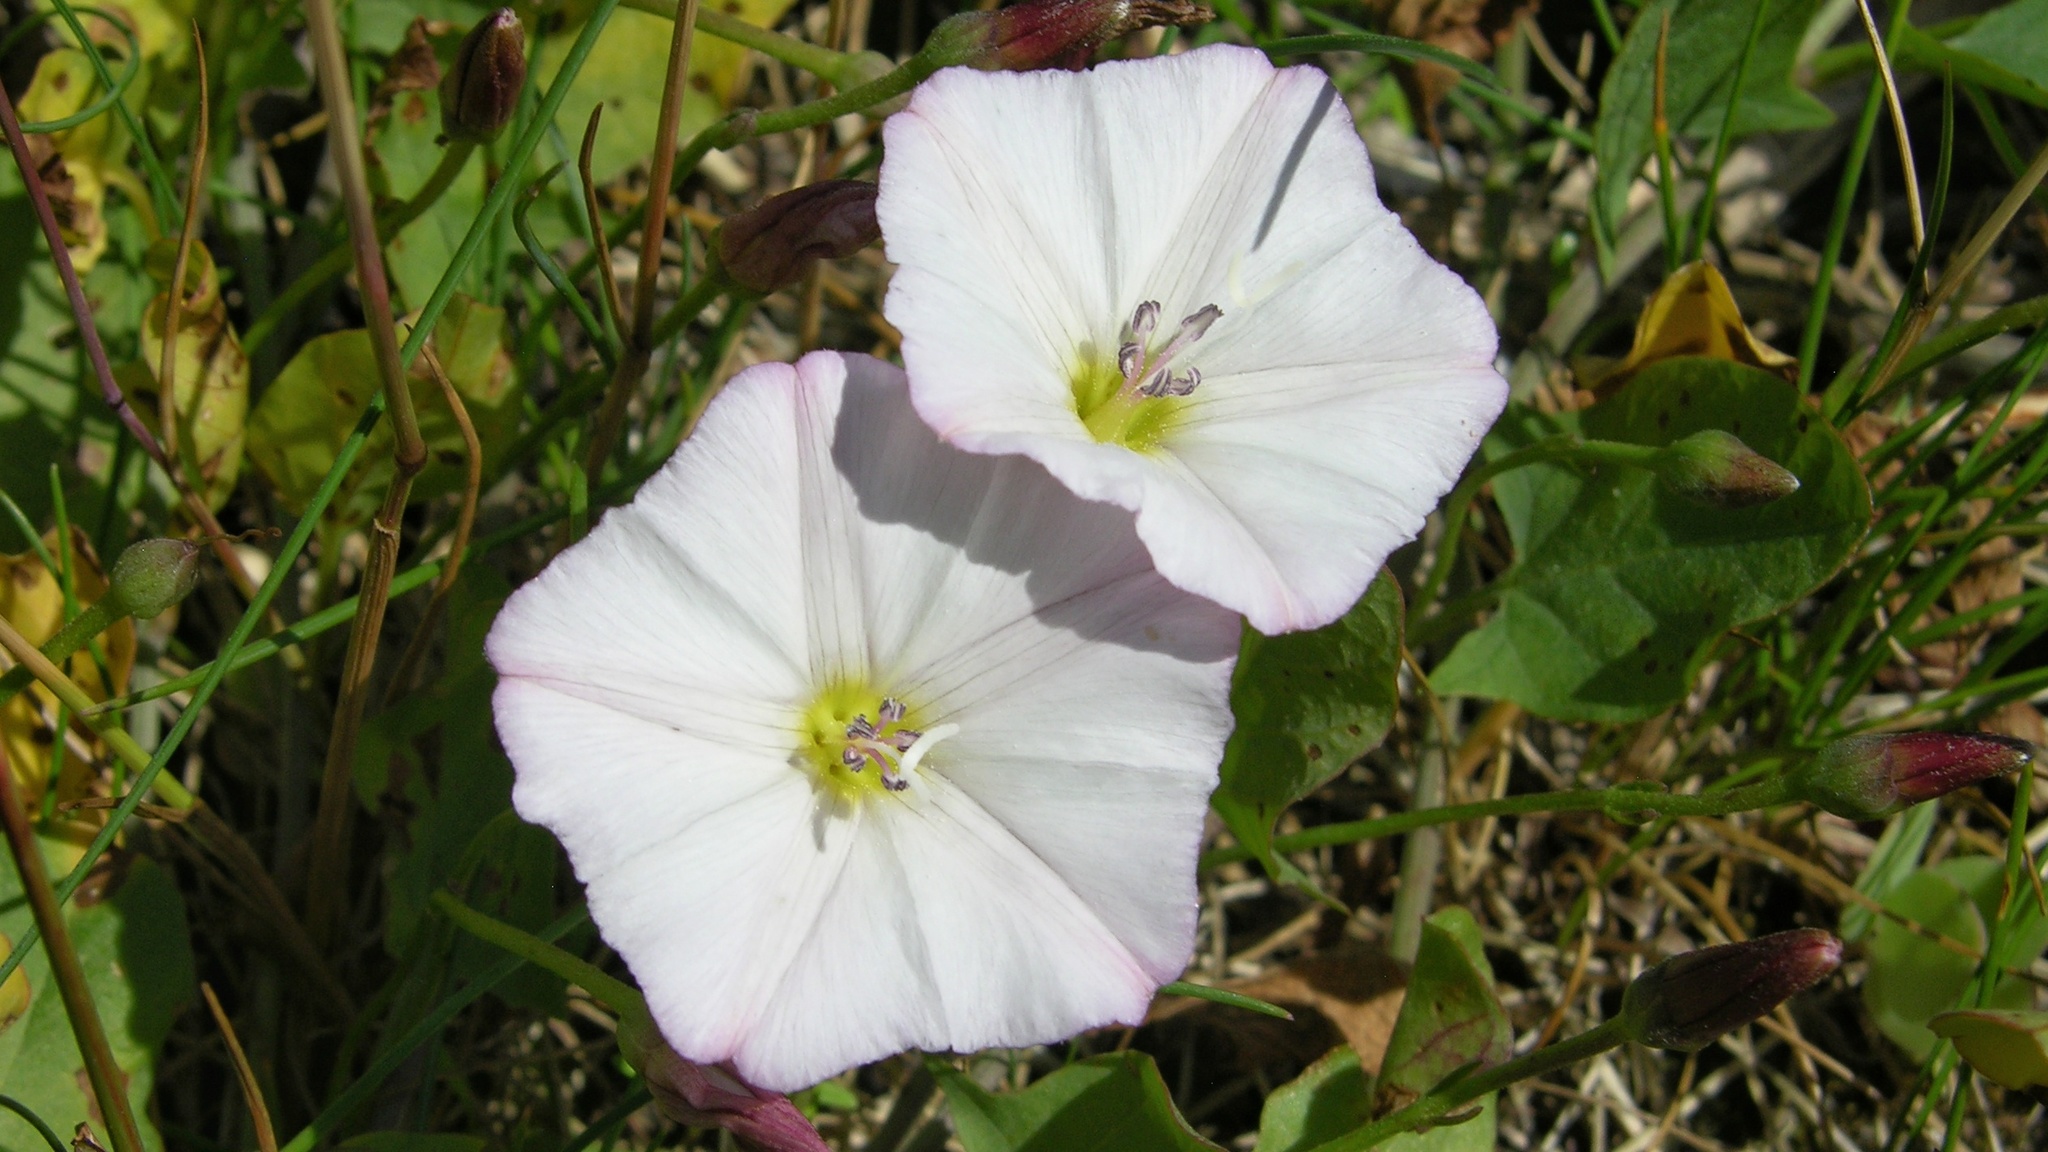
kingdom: Plantae
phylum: Tracheophyta
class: Magnoliopsida
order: Solanales
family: Convolvulaceae
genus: Convolvulus
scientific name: Convolvulus arvensis
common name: Field bindweed
